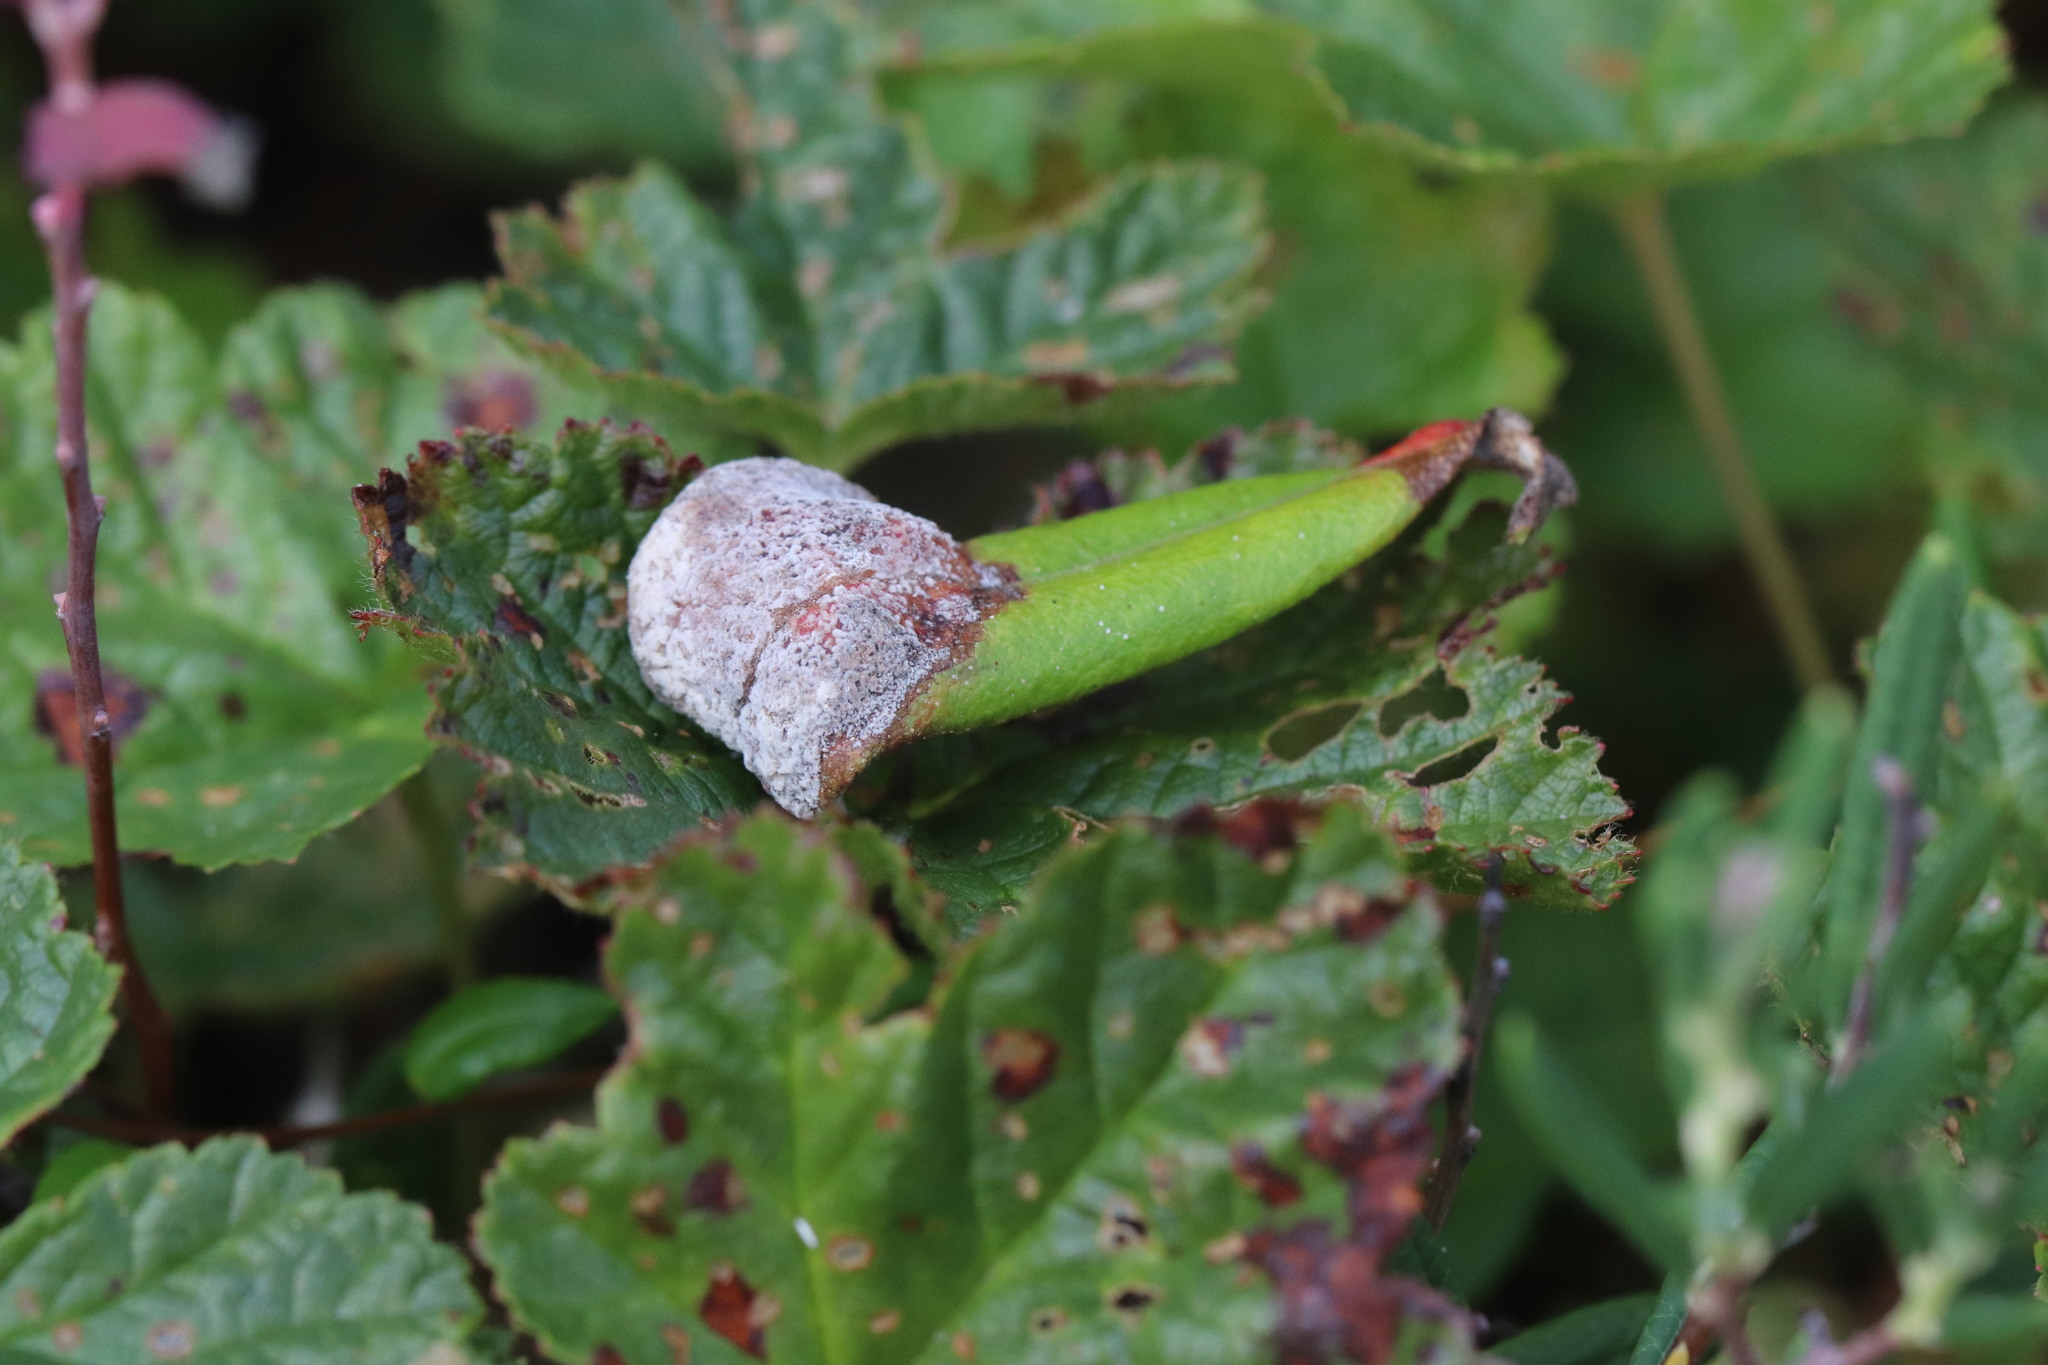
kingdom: Fungi
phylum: Basidiomycota
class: Exobasidiomycetes
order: Exobasidiales
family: Exobasidiaceae
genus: Exobasidium
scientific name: Exobasidium cassandrae
